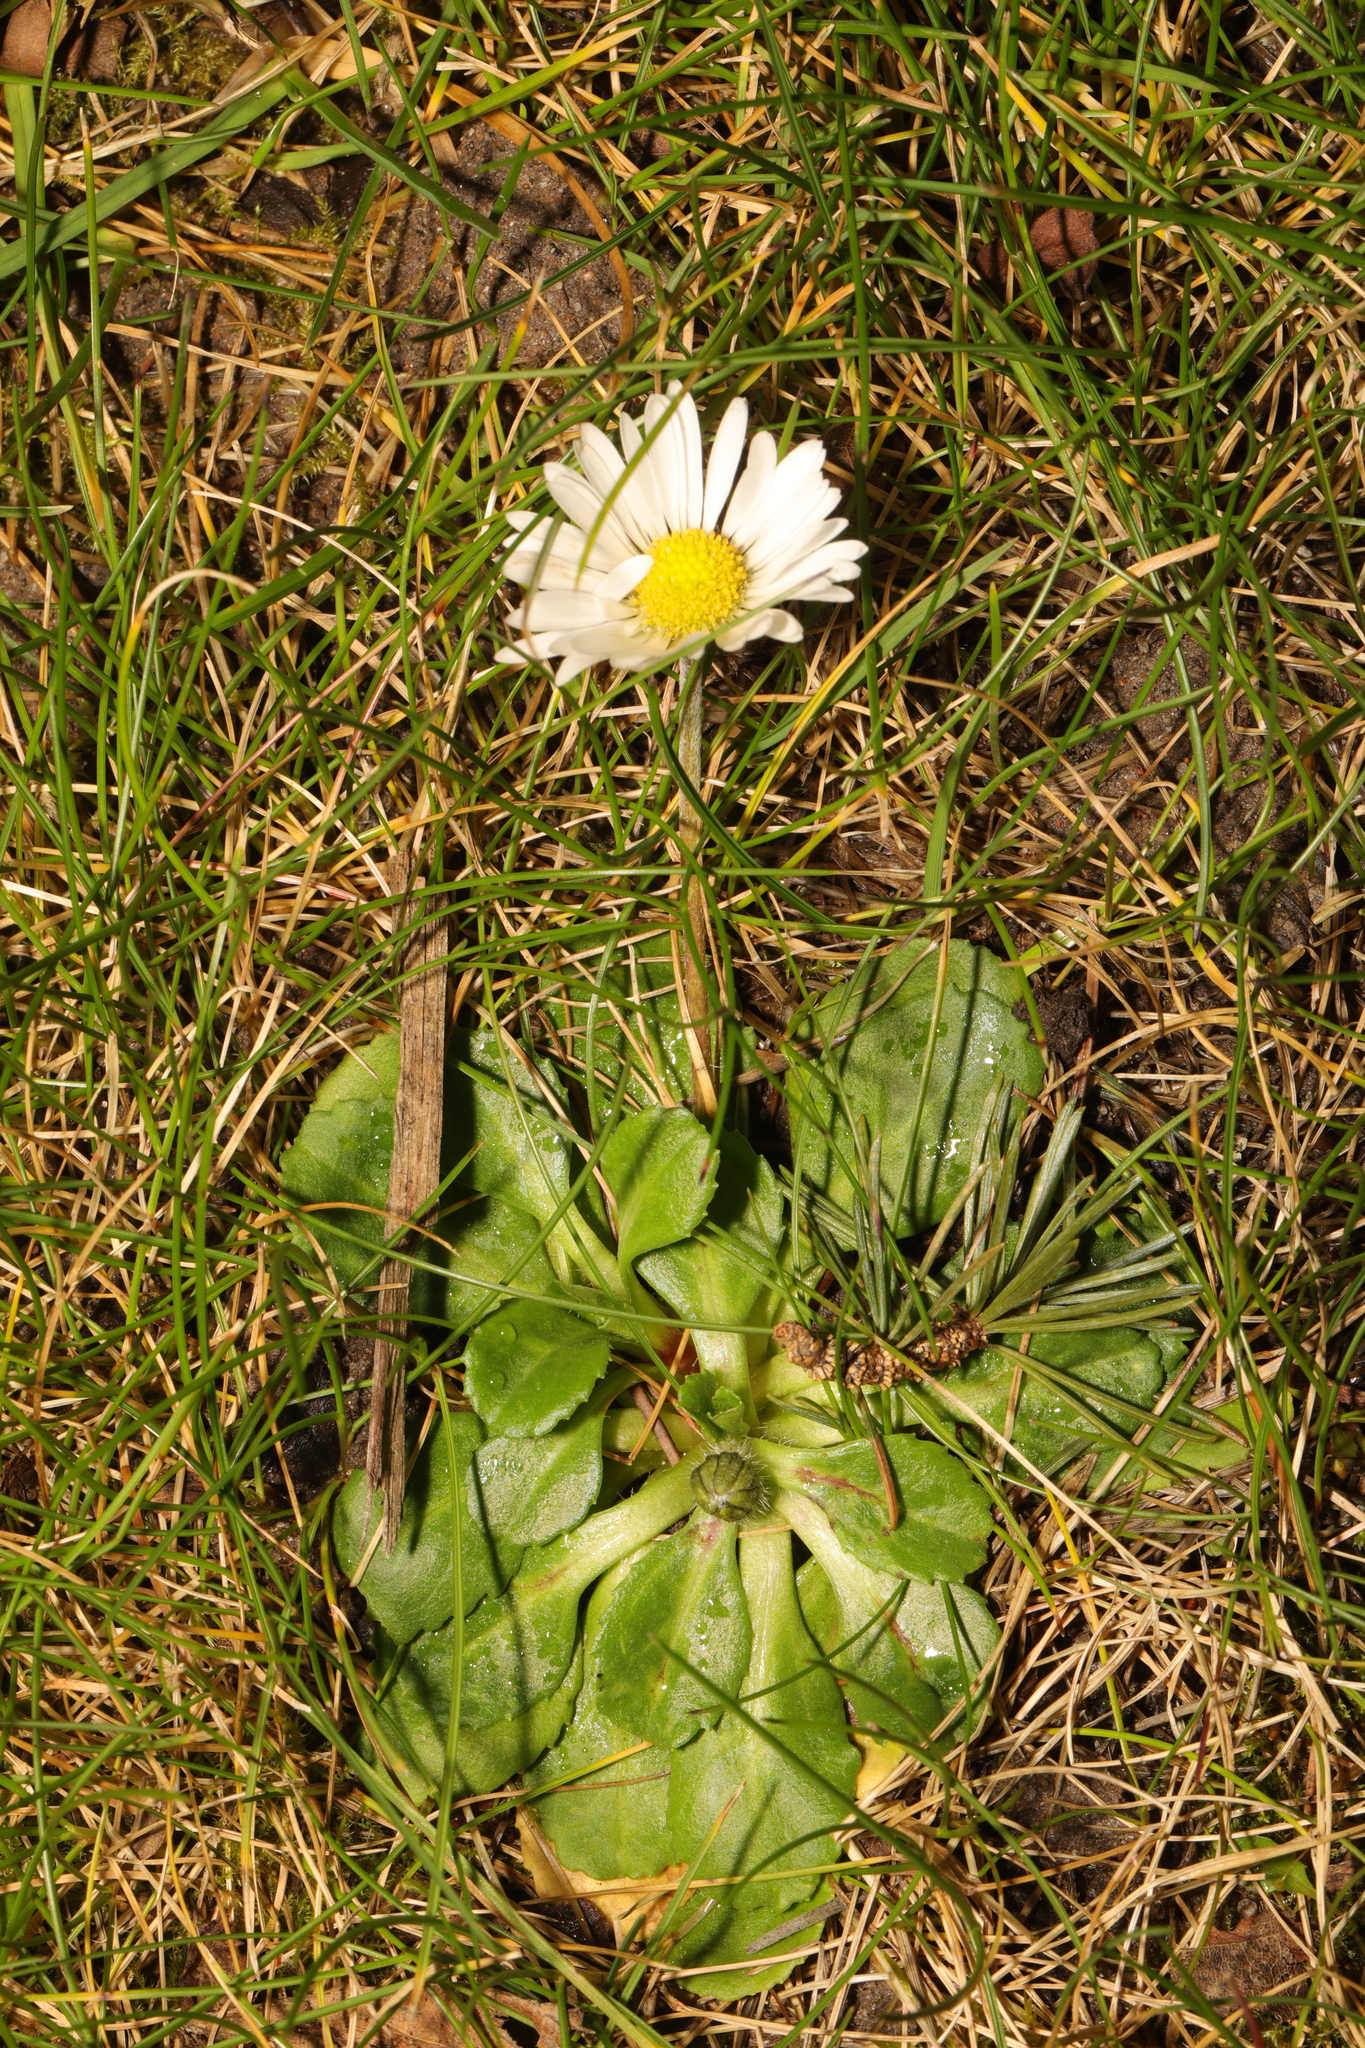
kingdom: Plantae
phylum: Tracheophyta
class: Magnoliopsida
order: Asterales
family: Asteraceae
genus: Bellis
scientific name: Bellis perennis
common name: Lawndaisy
